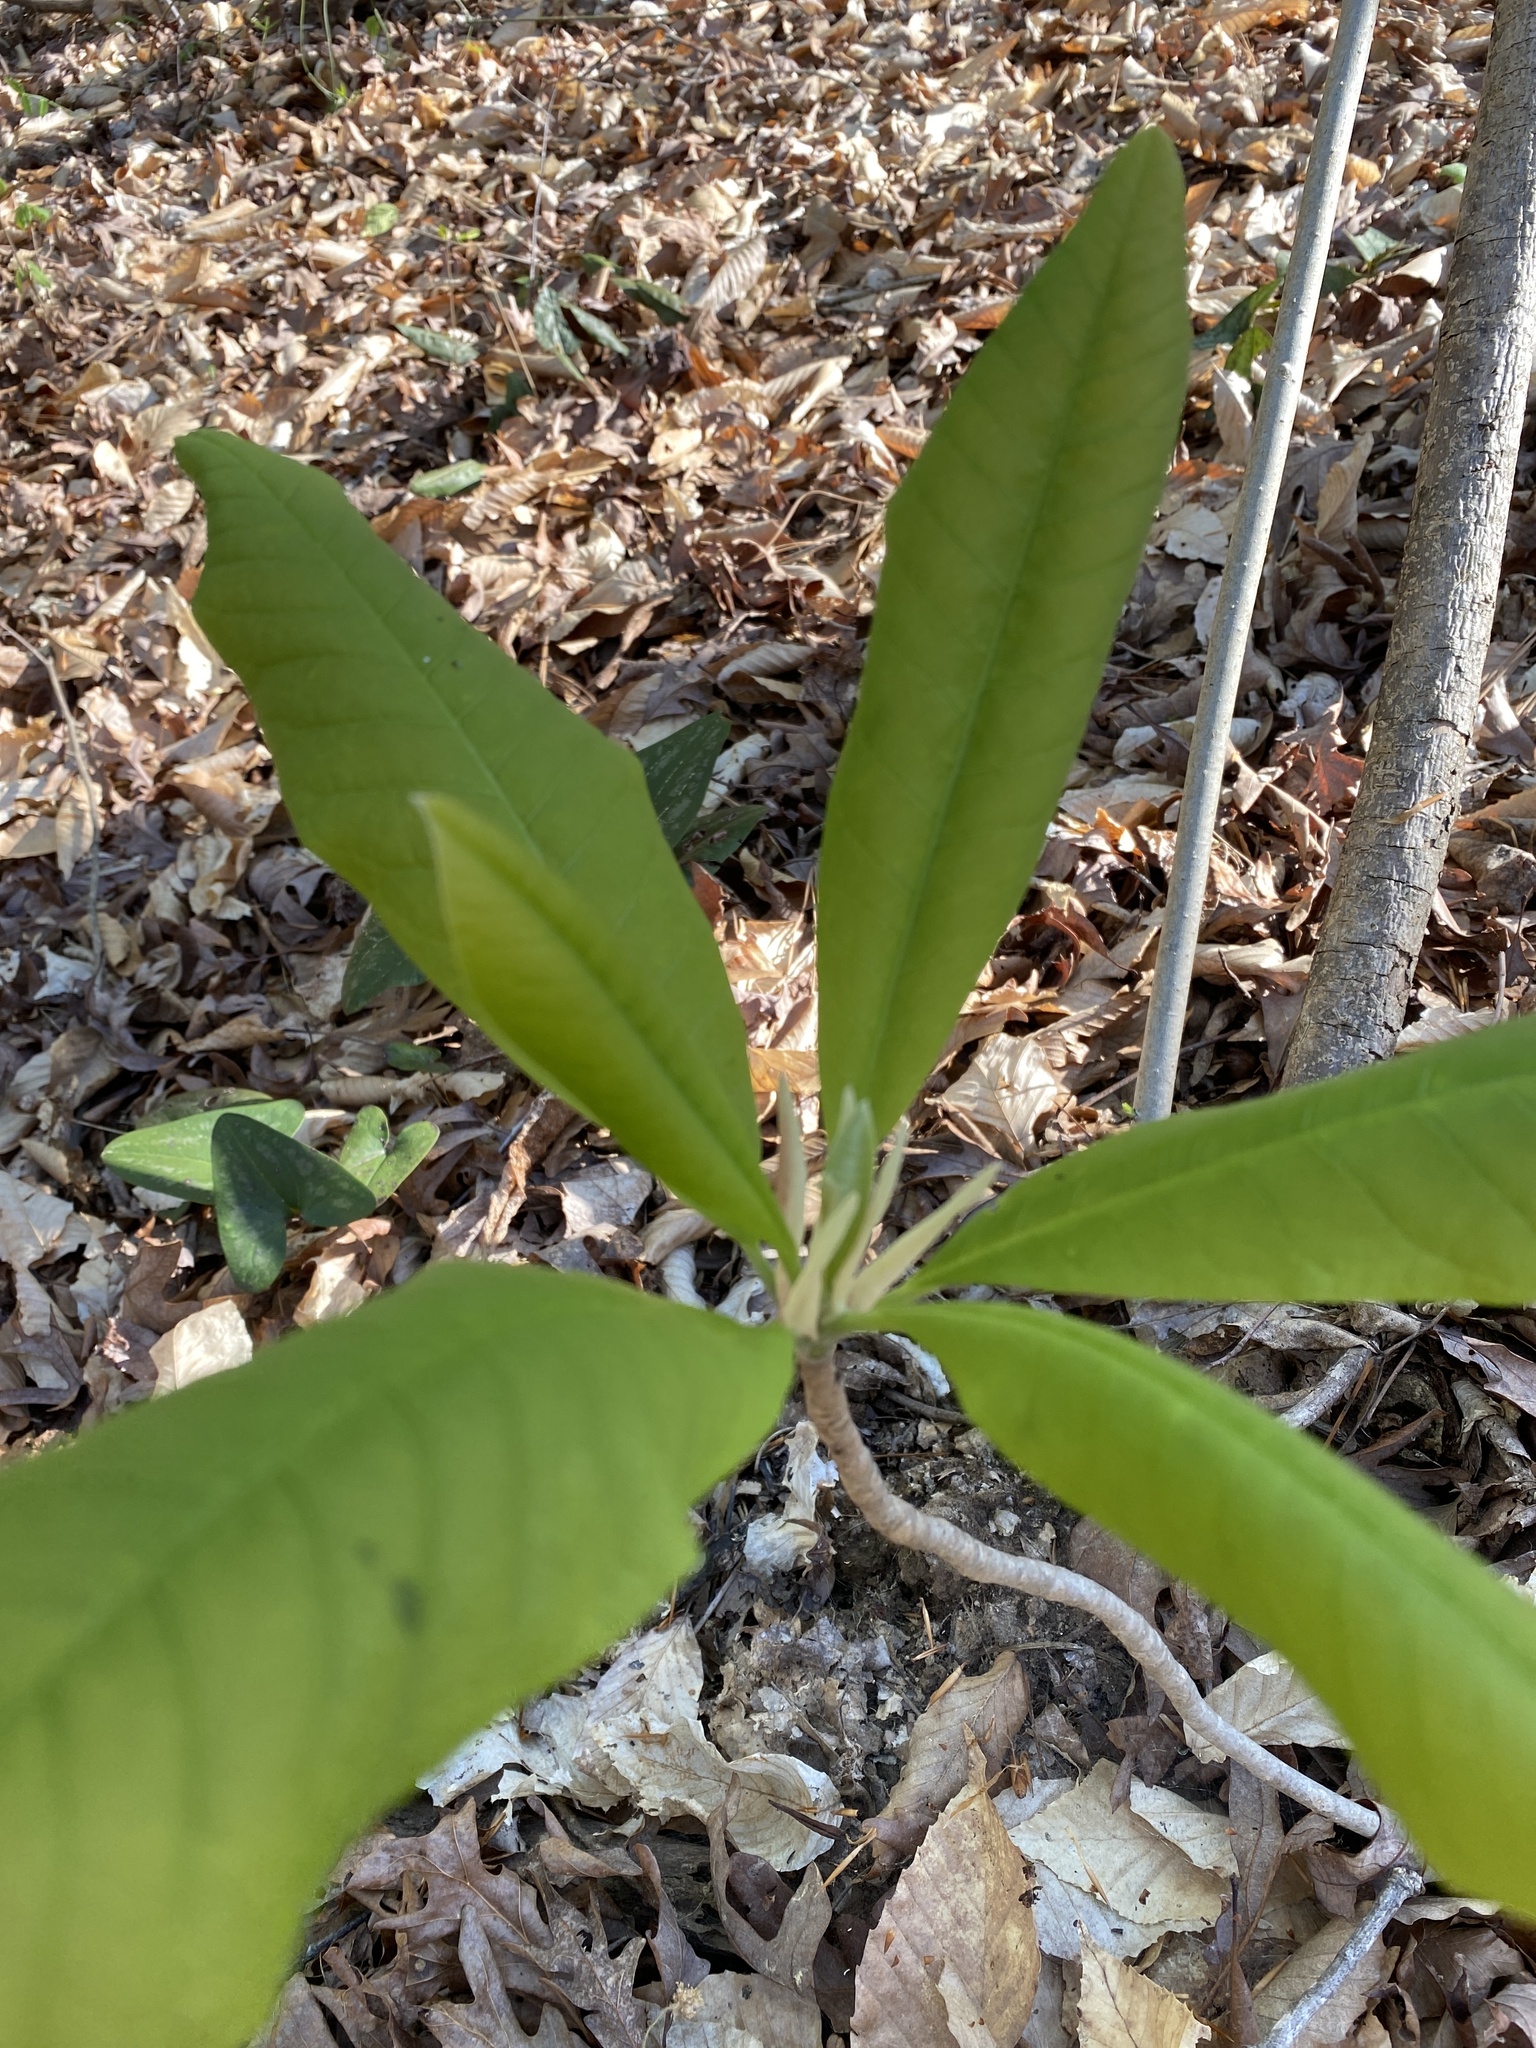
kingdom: Plantae
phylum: Tracheophyta
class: Magnoliopsida
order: Magnoliales
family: Magnoliaceae
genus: Magnolia
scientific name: Magnolia tripetala
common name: Umbrella magnolia
